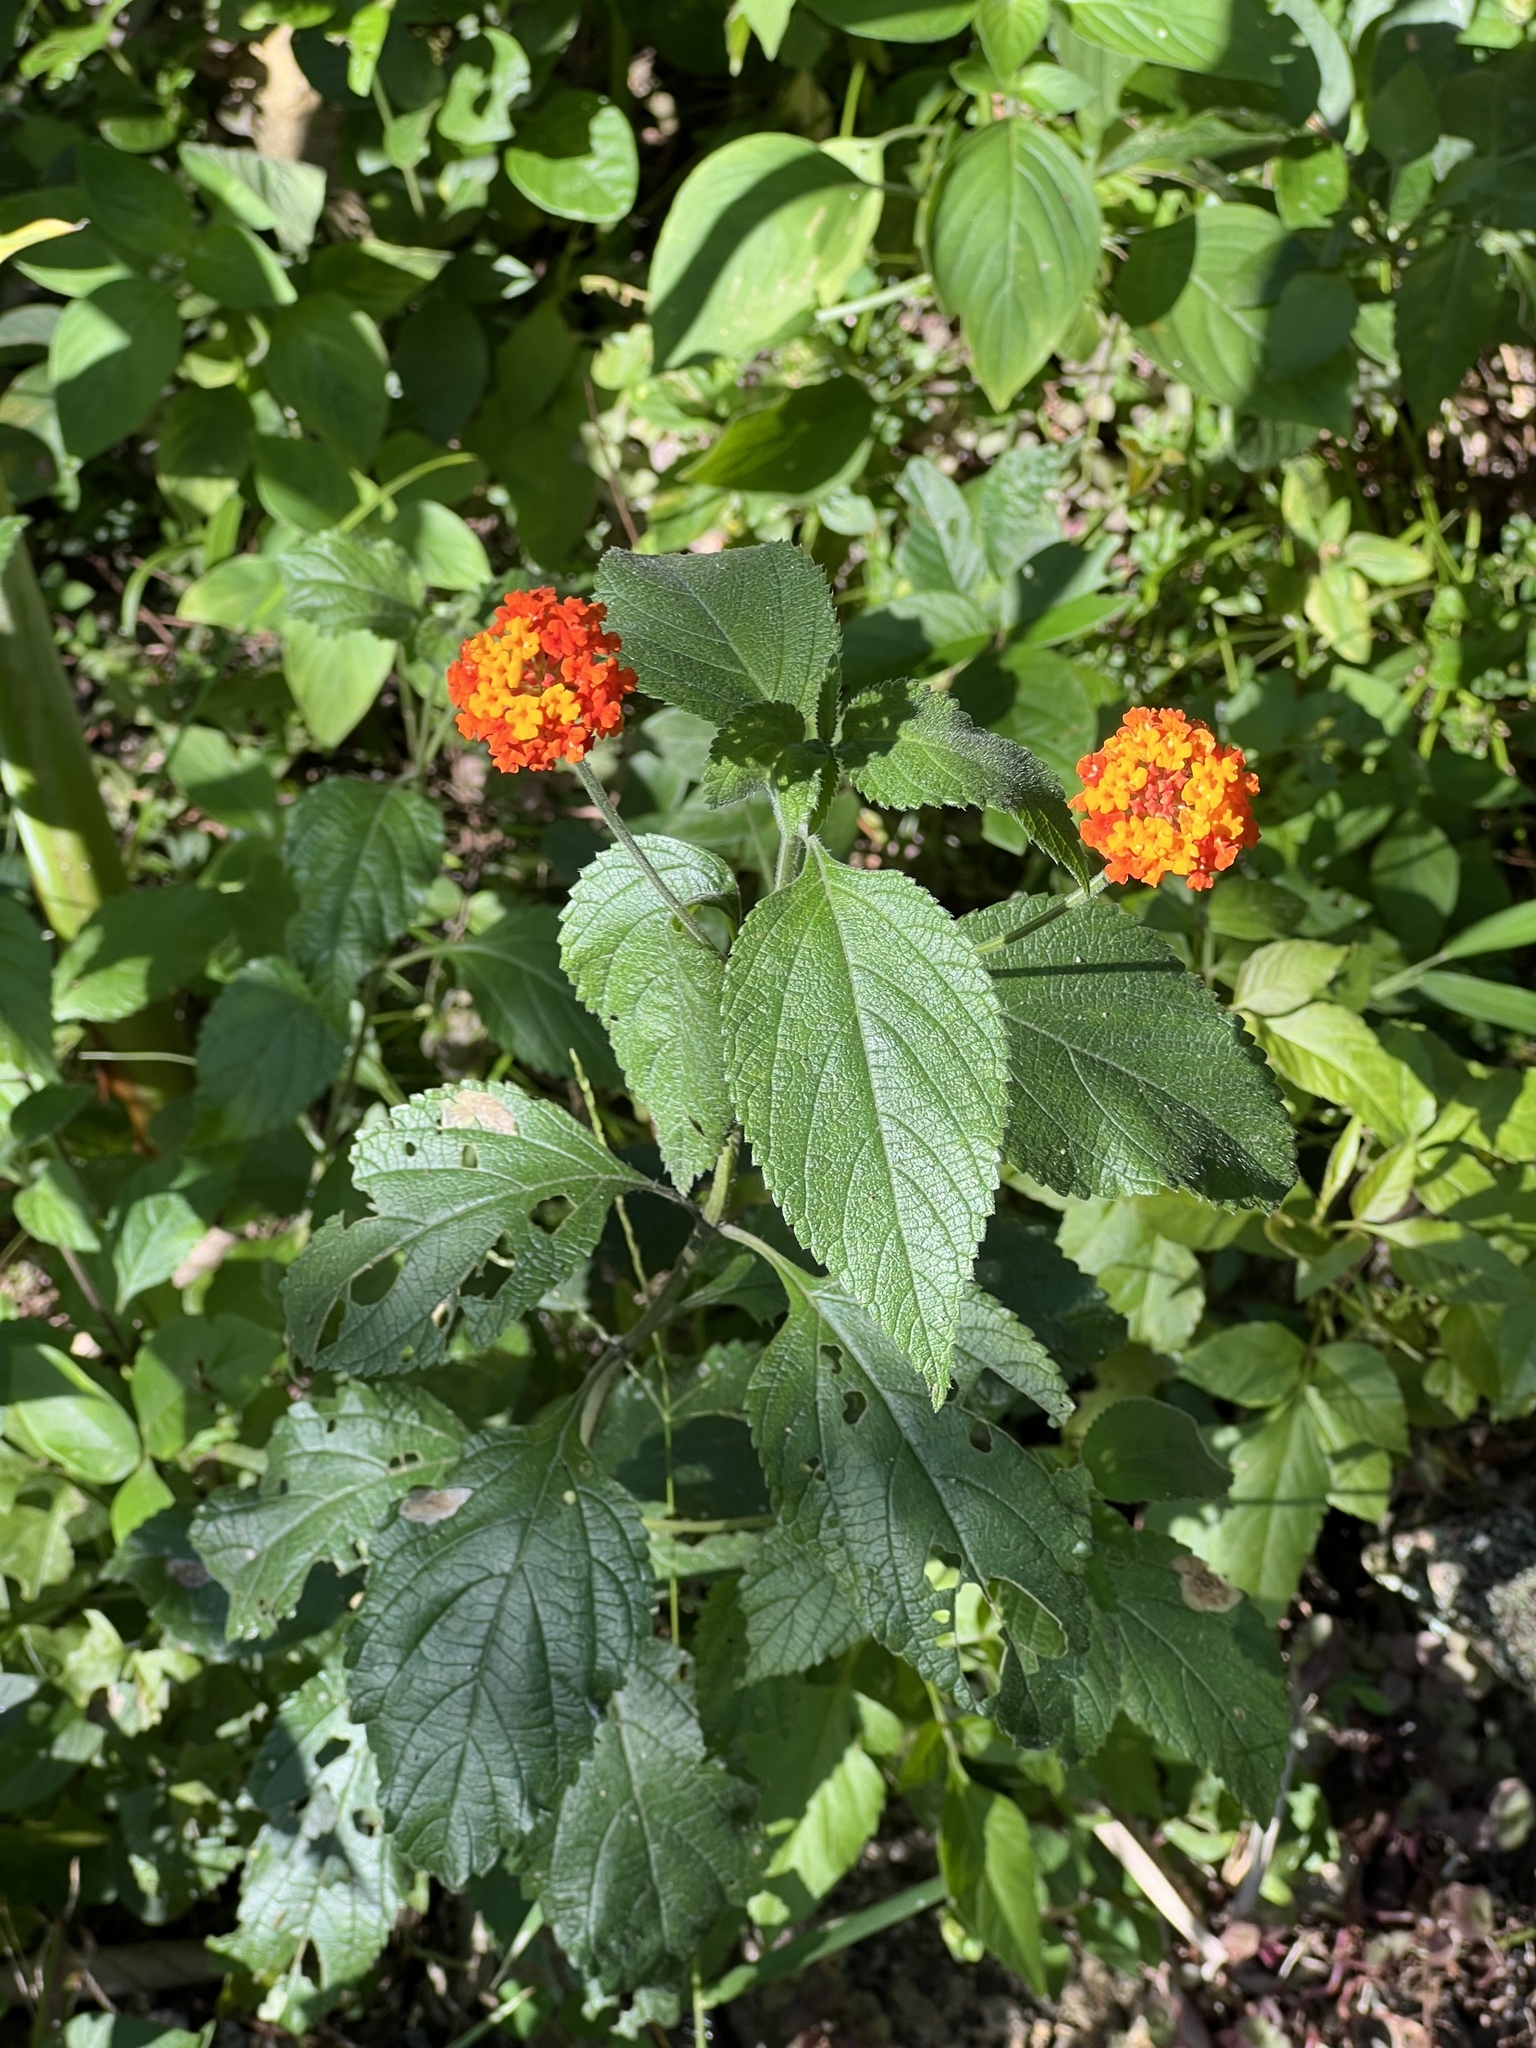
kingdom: Plantae
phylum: Tracheophyta
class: Magnoliopsida
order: Lamiales
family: Verbenaceae
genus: Lantana
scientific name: Lantana camara
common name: Lantana
